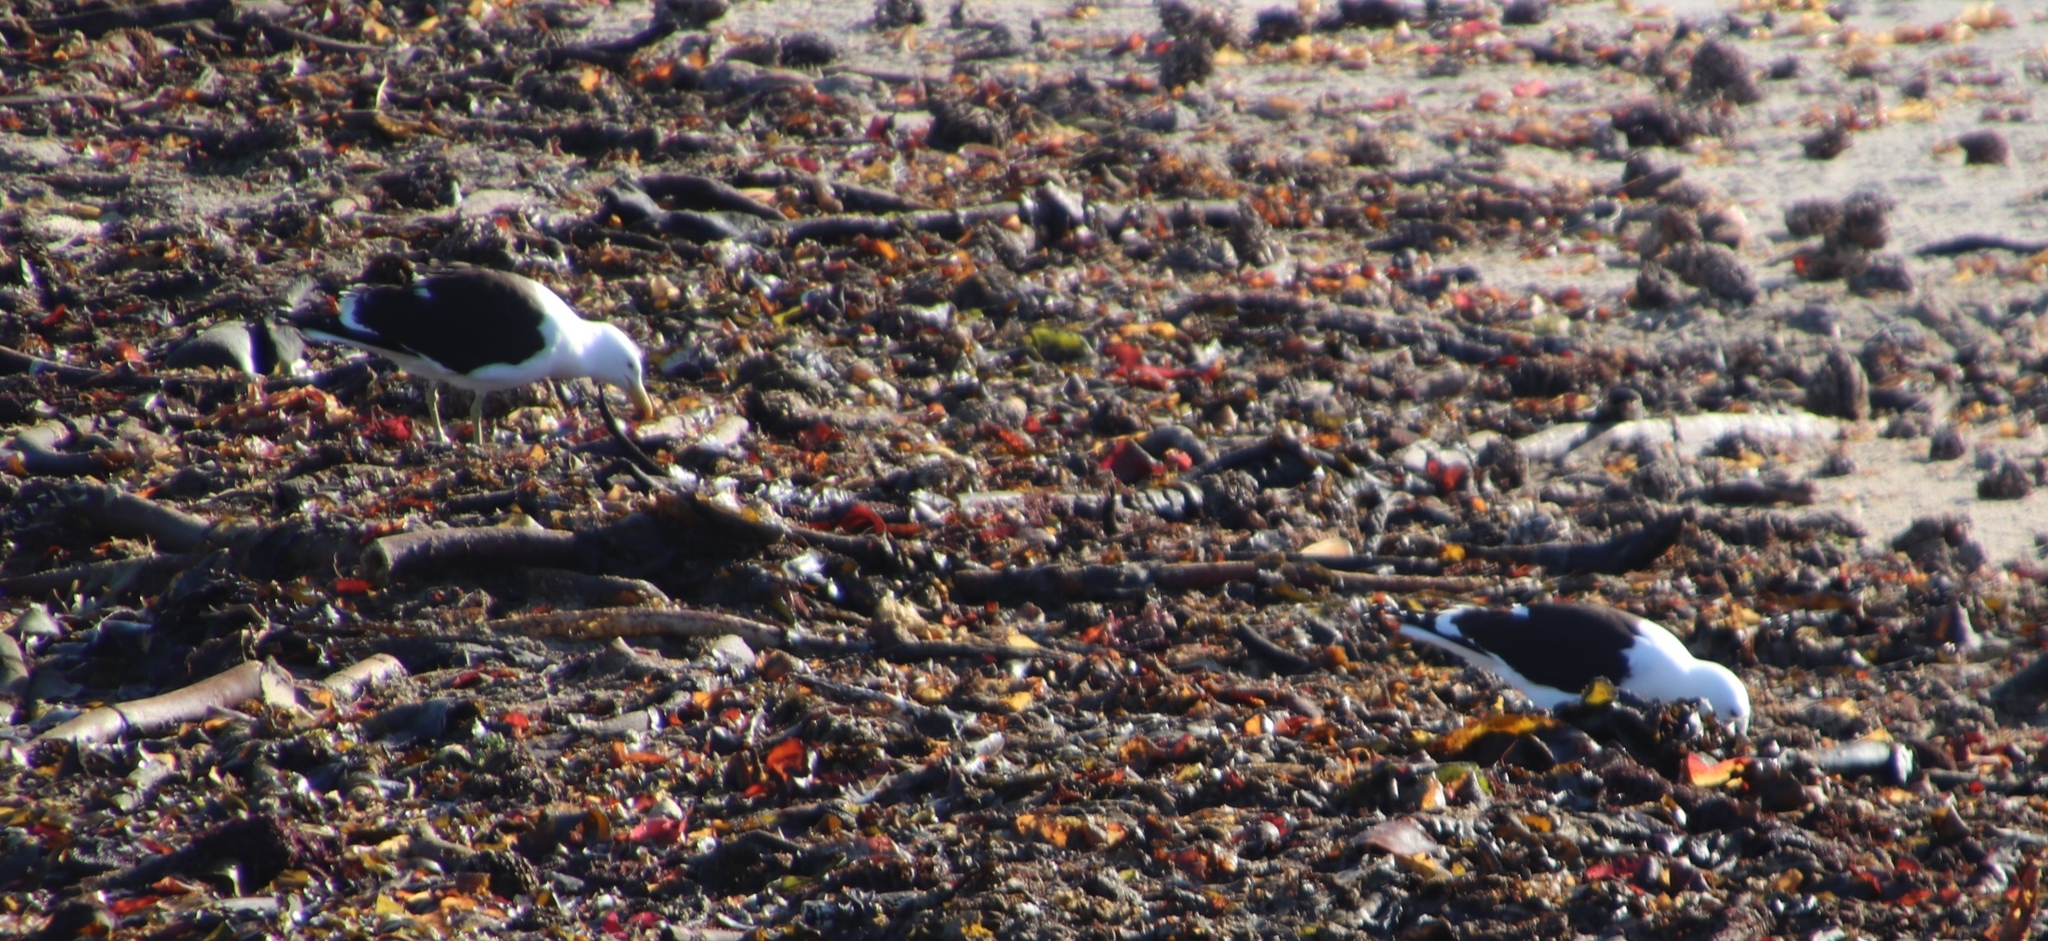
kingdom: Animalia
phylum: Chordata
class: Aves
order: Charadriiformes
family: Laridae
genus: Larus
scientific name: Larus dominicanus
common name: Kelp gull
